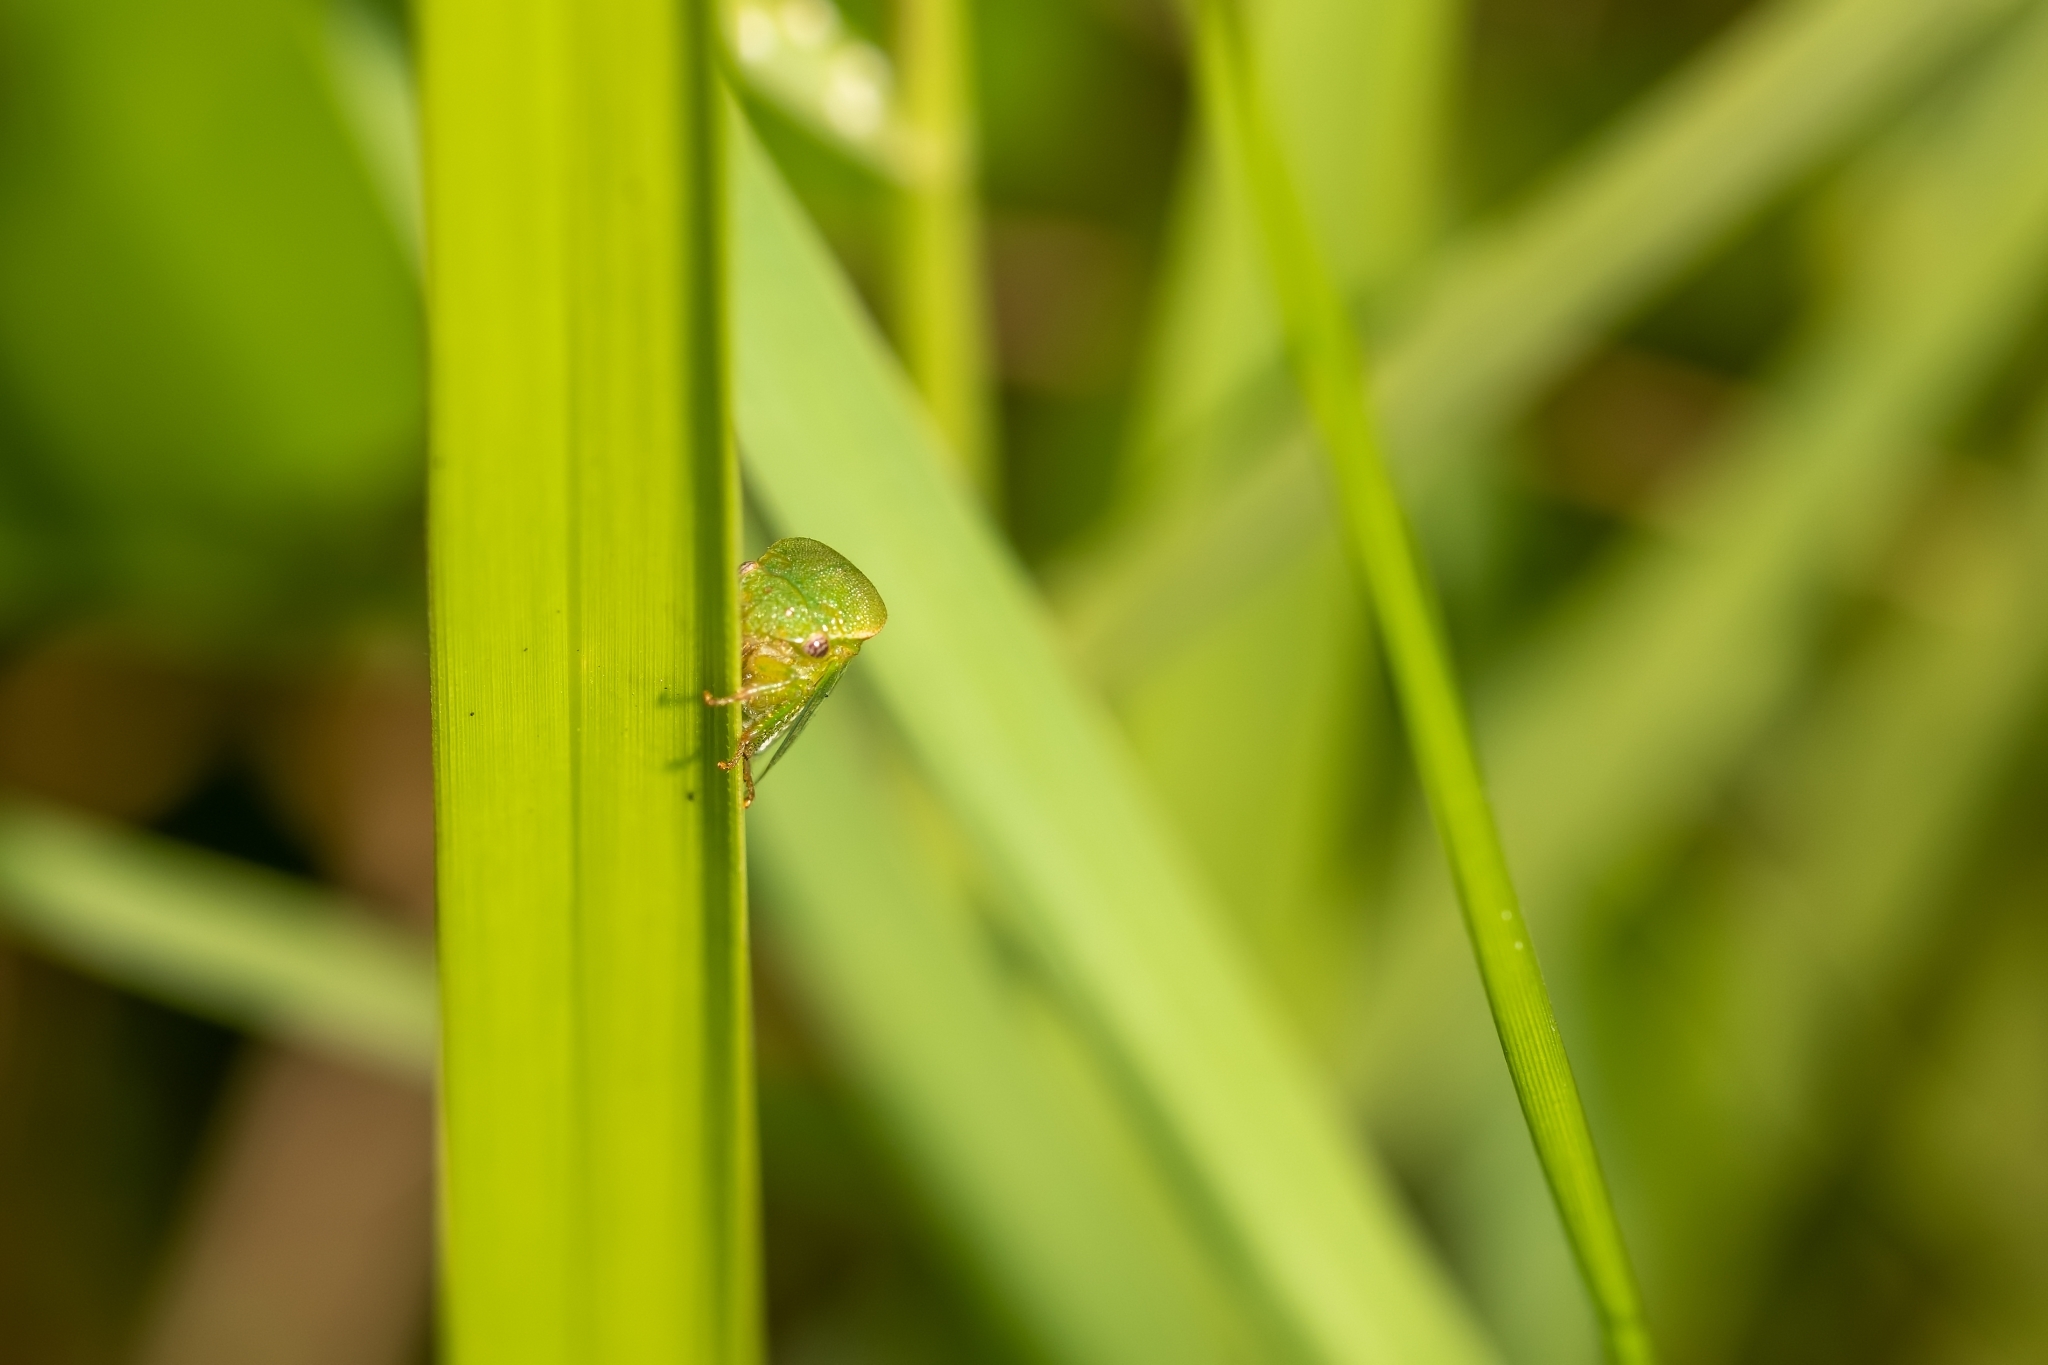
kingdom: Animalia
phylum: Arthropoda
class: Insecta
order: Hemiptera
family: Membracidae
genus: Spissistilus
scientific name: Spissistilus festina
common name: Membracid bug
